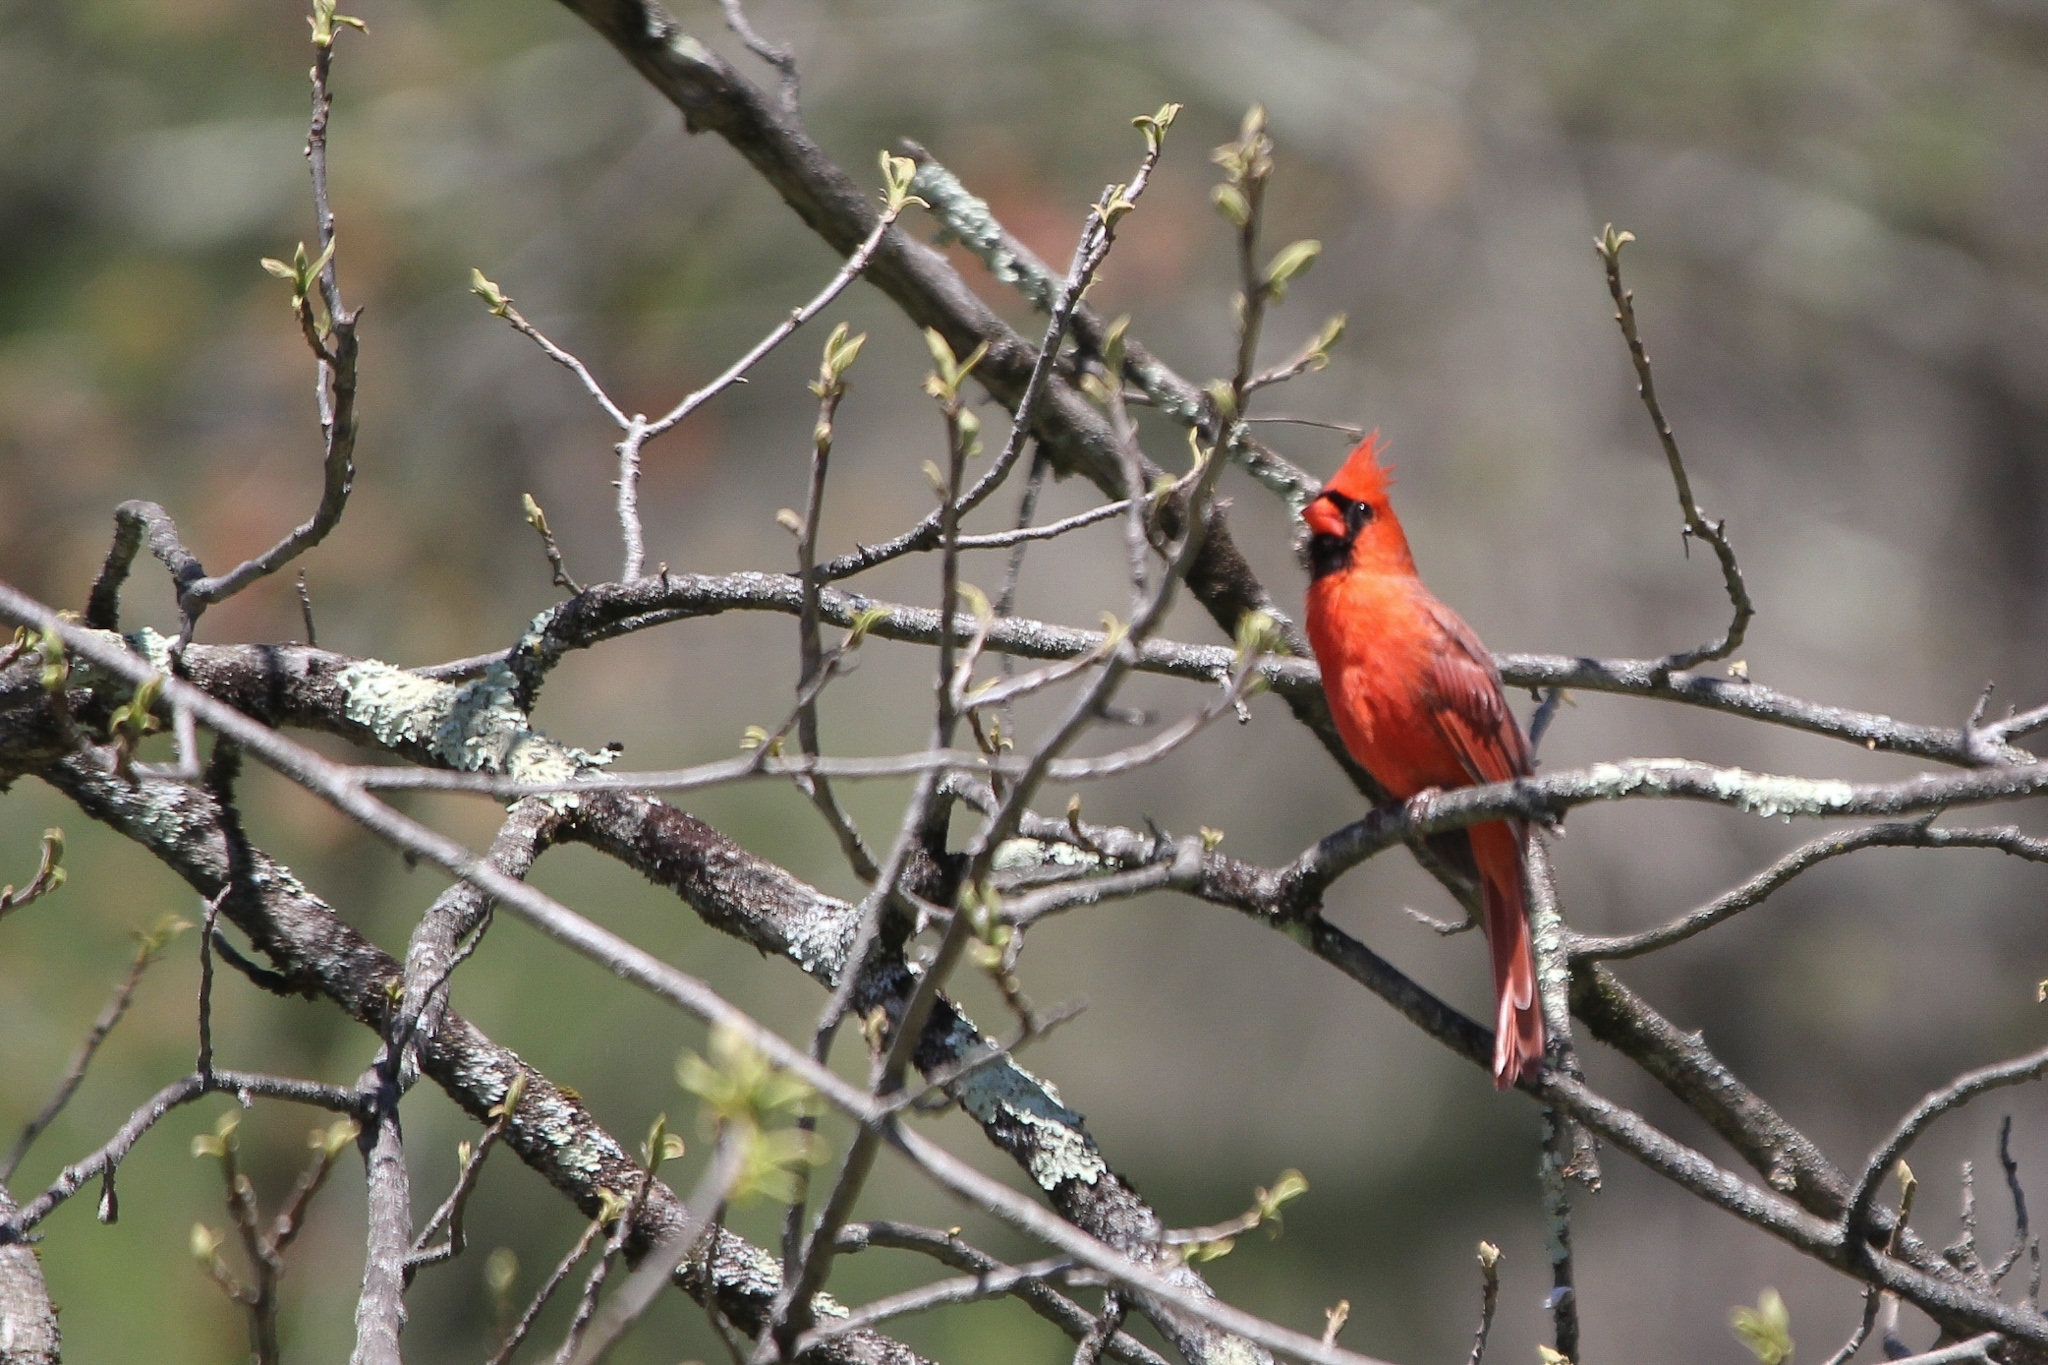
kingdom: Animalia
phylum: Chordata
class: Aves
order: Passeriformes
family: Cardinalidae
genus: Cardinalis
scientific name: Cardinalis cardinalis
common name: Northern cardinal
